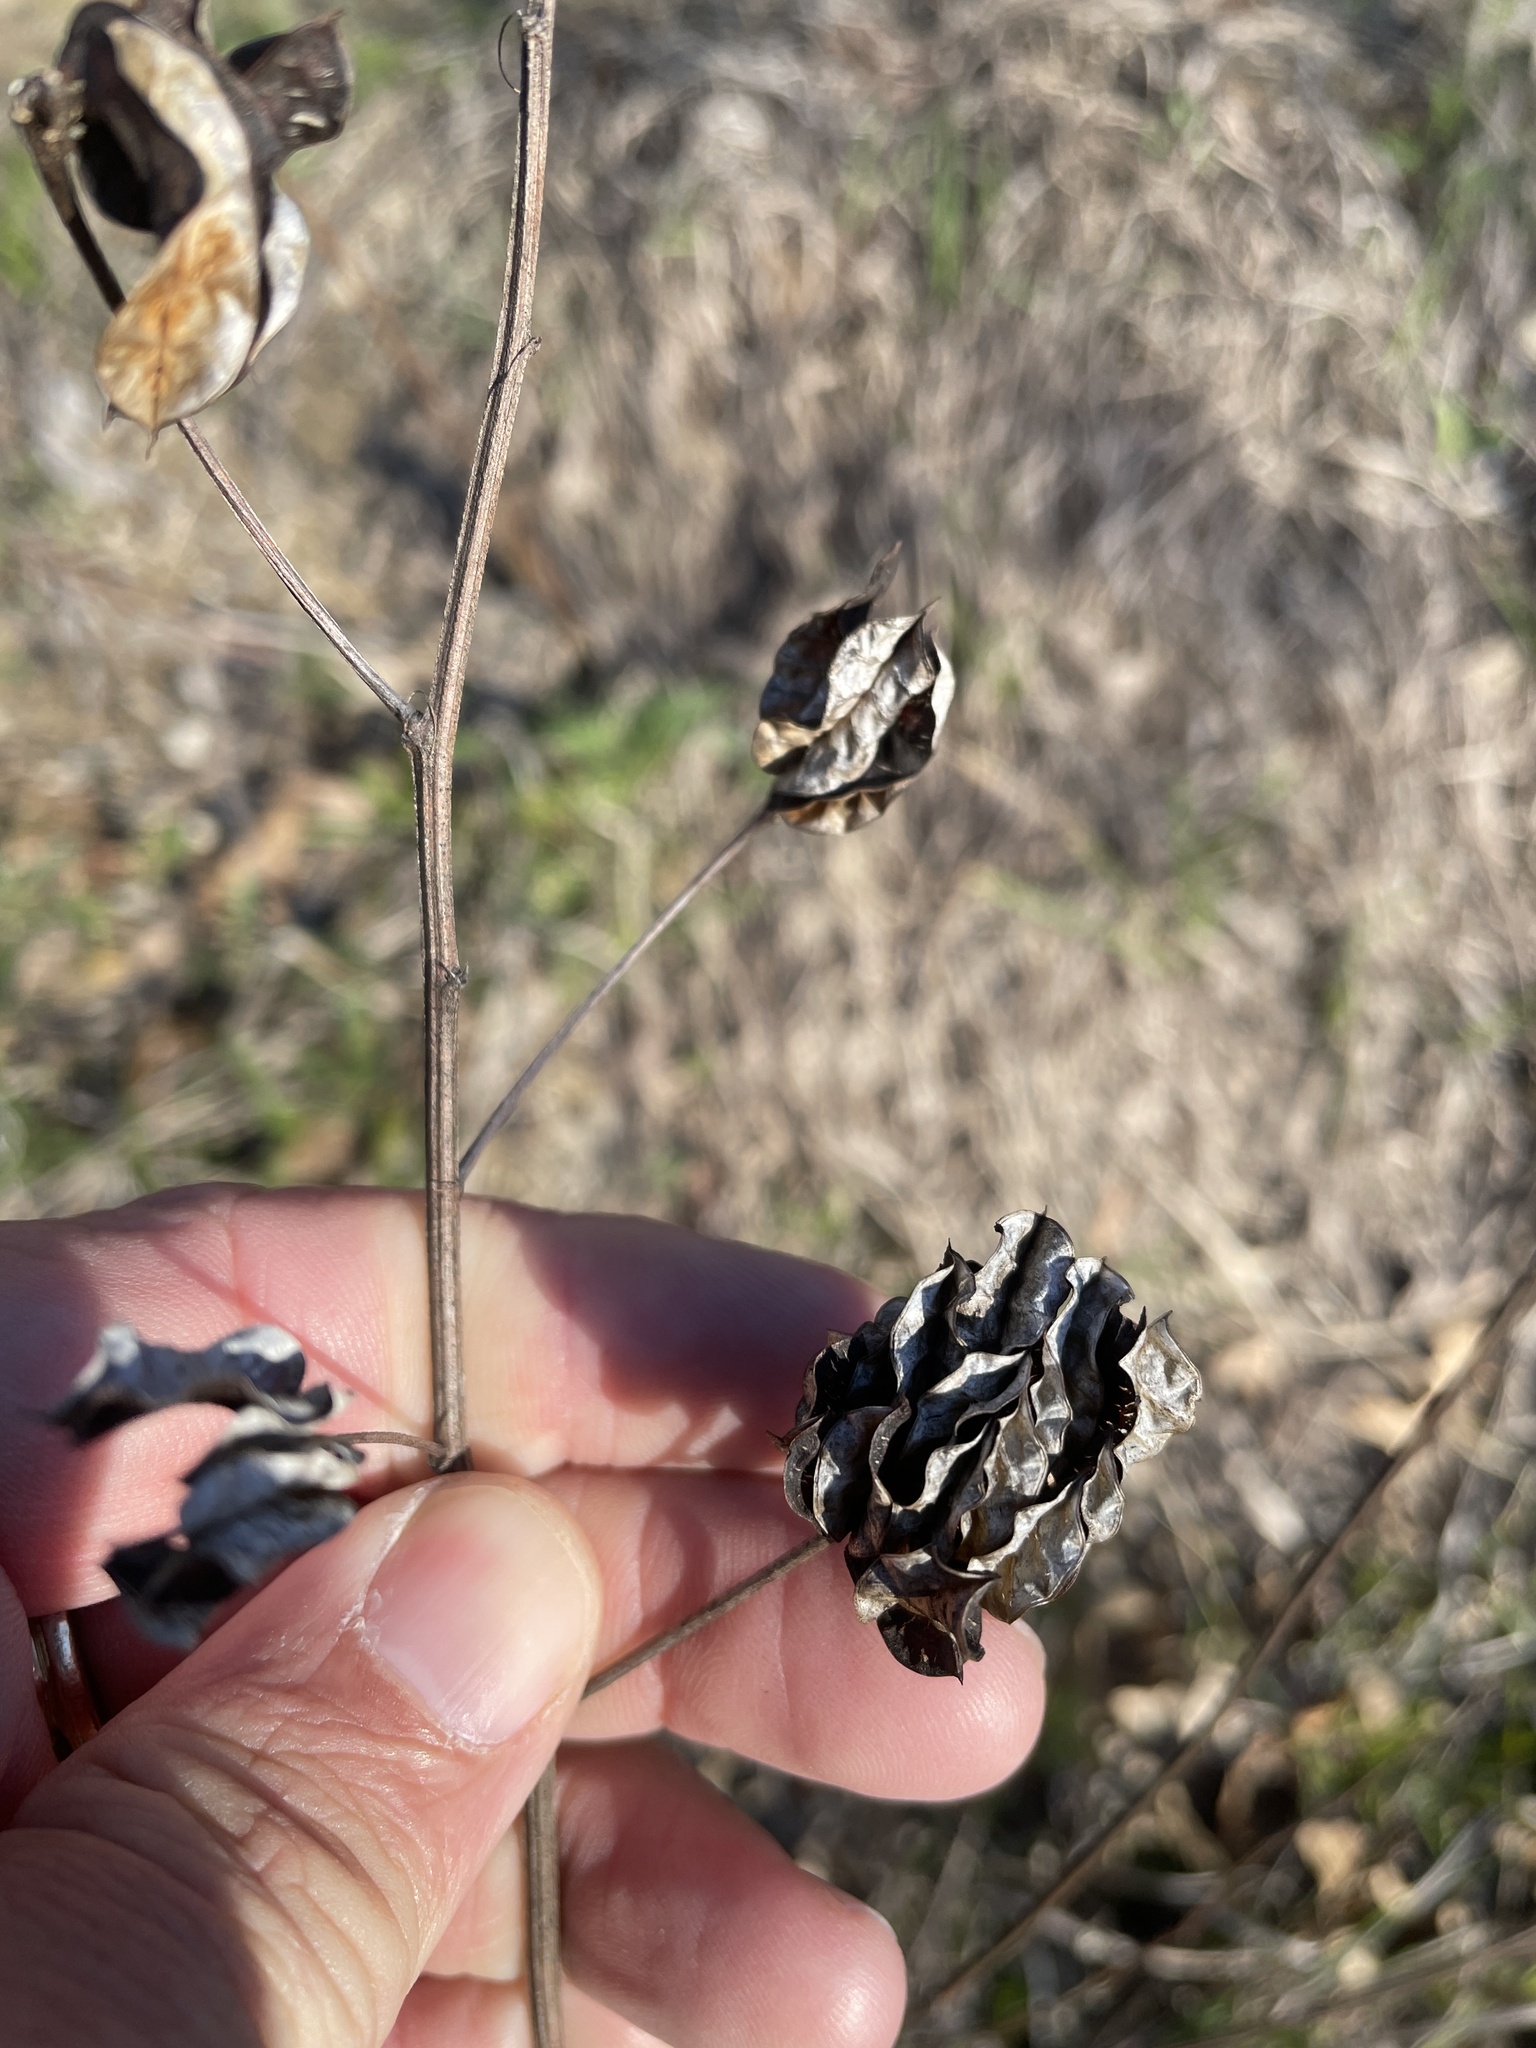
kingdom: Plantae
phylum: Tracheophyta
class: Magnoliopsida
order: Fabales
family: Fabaceae
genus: Desmanthus
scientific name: Desmanthus illinoensis
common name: Illinois bundle-flower
